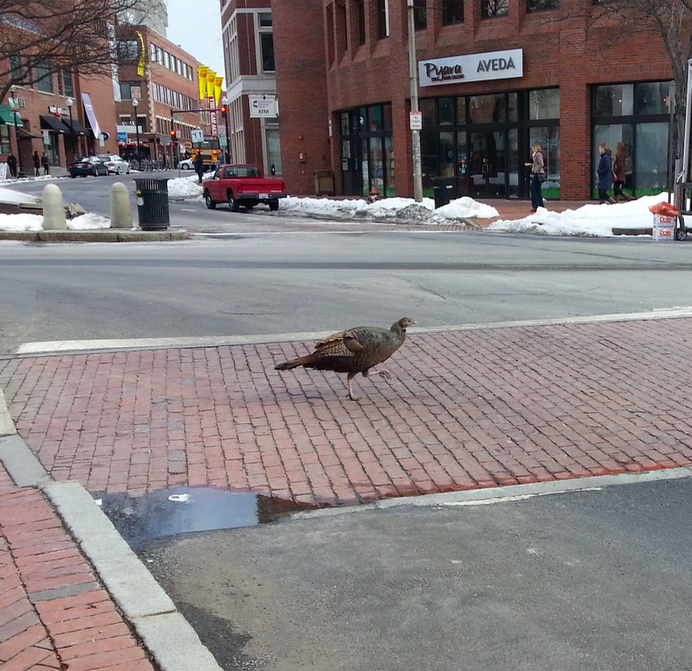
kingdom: Animalia
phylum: Chordata
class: Aves
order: Galliformes
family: Phasianidae
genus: Meleagris
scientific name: Meleagris gallopavo
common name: Wild turkey
